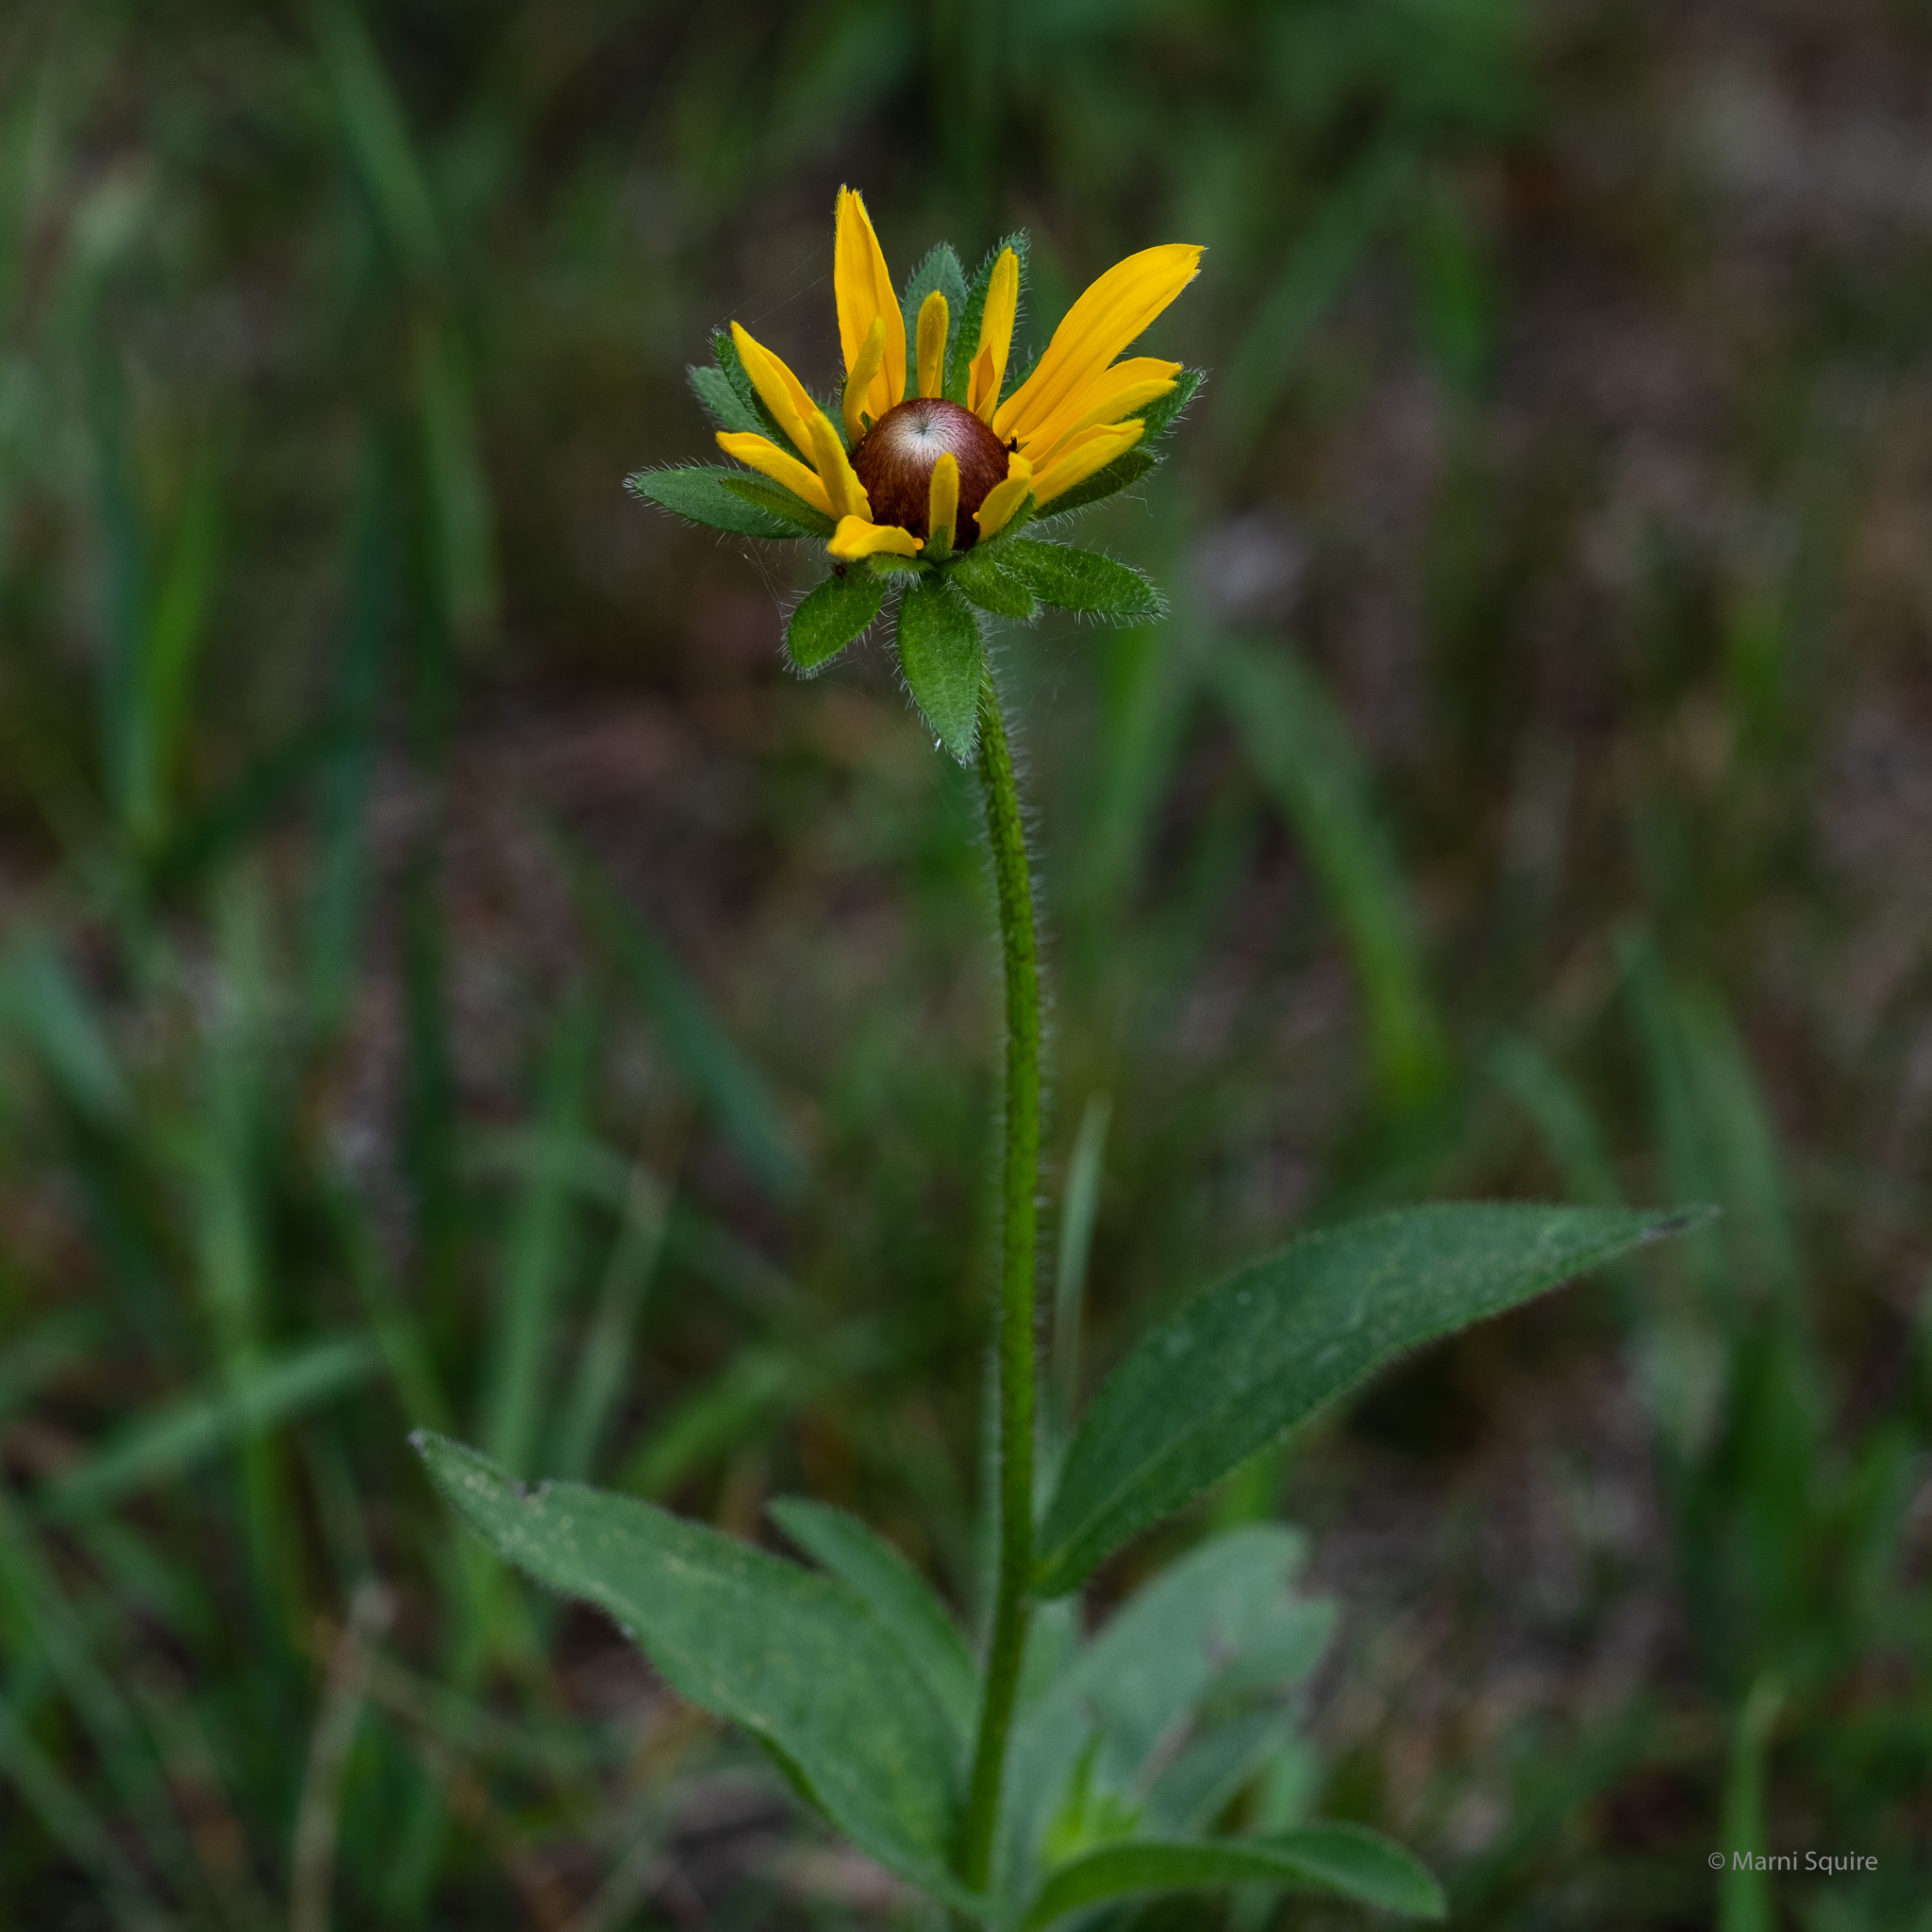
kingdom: Plantae
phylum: Tracheophyta
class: Magnoliopsida
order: Asterales
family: Asteraceae
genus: Rudbeckia
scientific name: Rudbeckia hirta
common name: Black-eyed-susan
